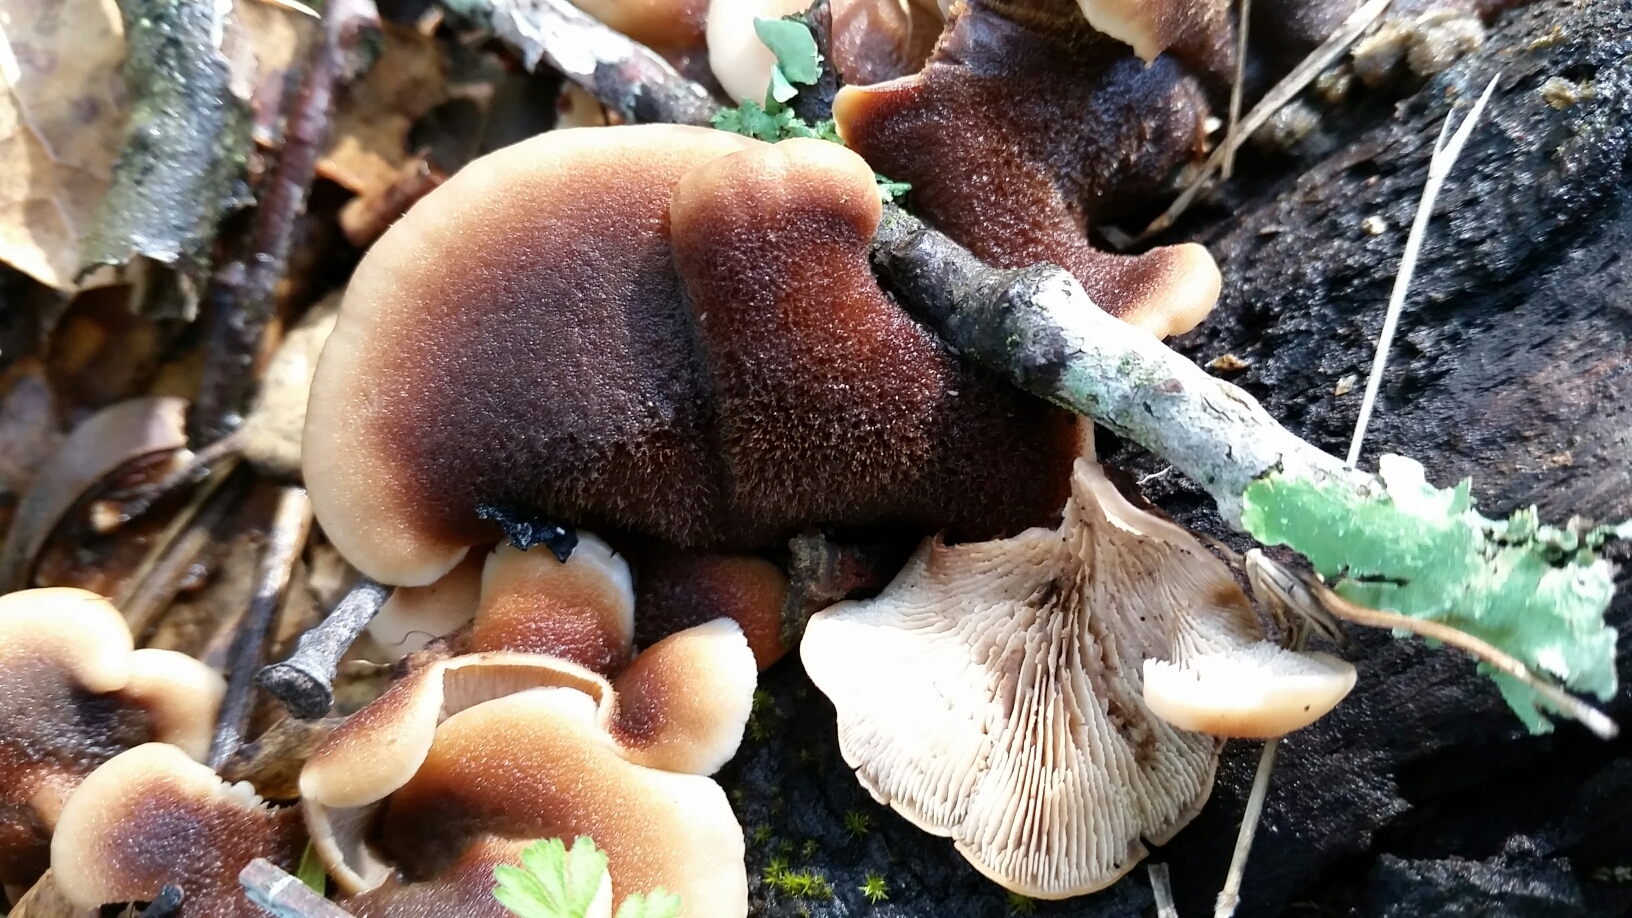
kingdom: Fungi
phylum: Basidiomycota
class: Agaricomycetes
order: Russulales
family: Auriscalpiaceae
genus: Lentinellus
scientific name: Lentinellus ursinus
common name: Bear lentinus
